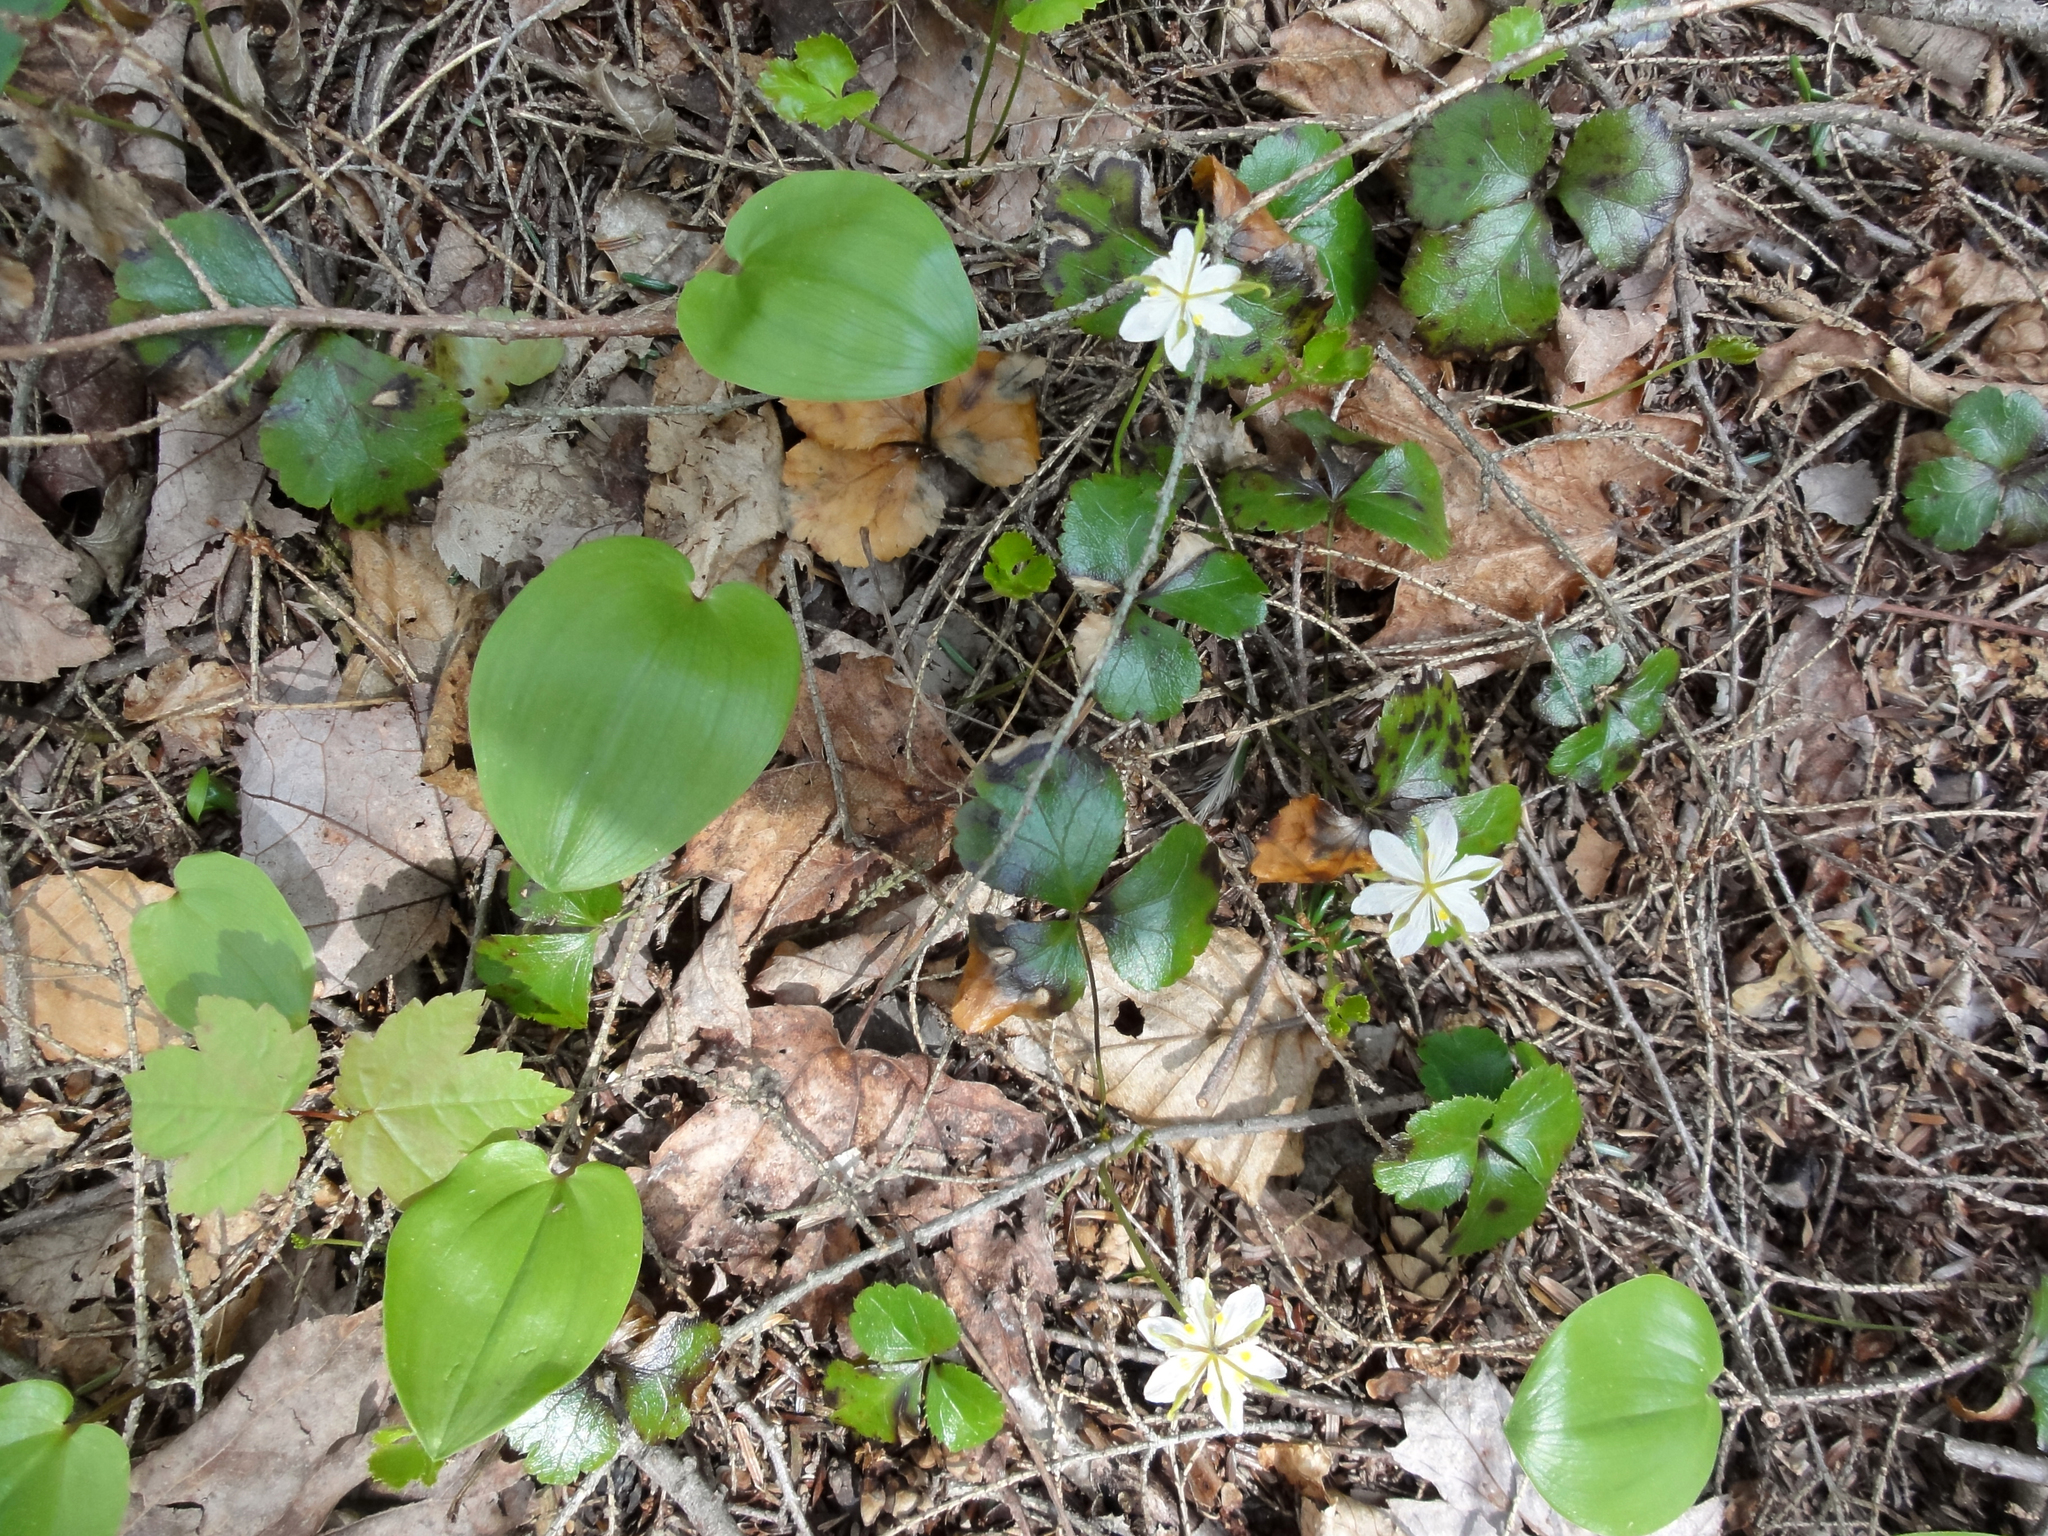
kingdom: Plantae
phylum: Tracheophyta
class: Magnoliopsida
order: Ranunculales
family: Ranunculaceae
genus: Coptis
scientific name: Coptis trifolia
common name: Canker-root
